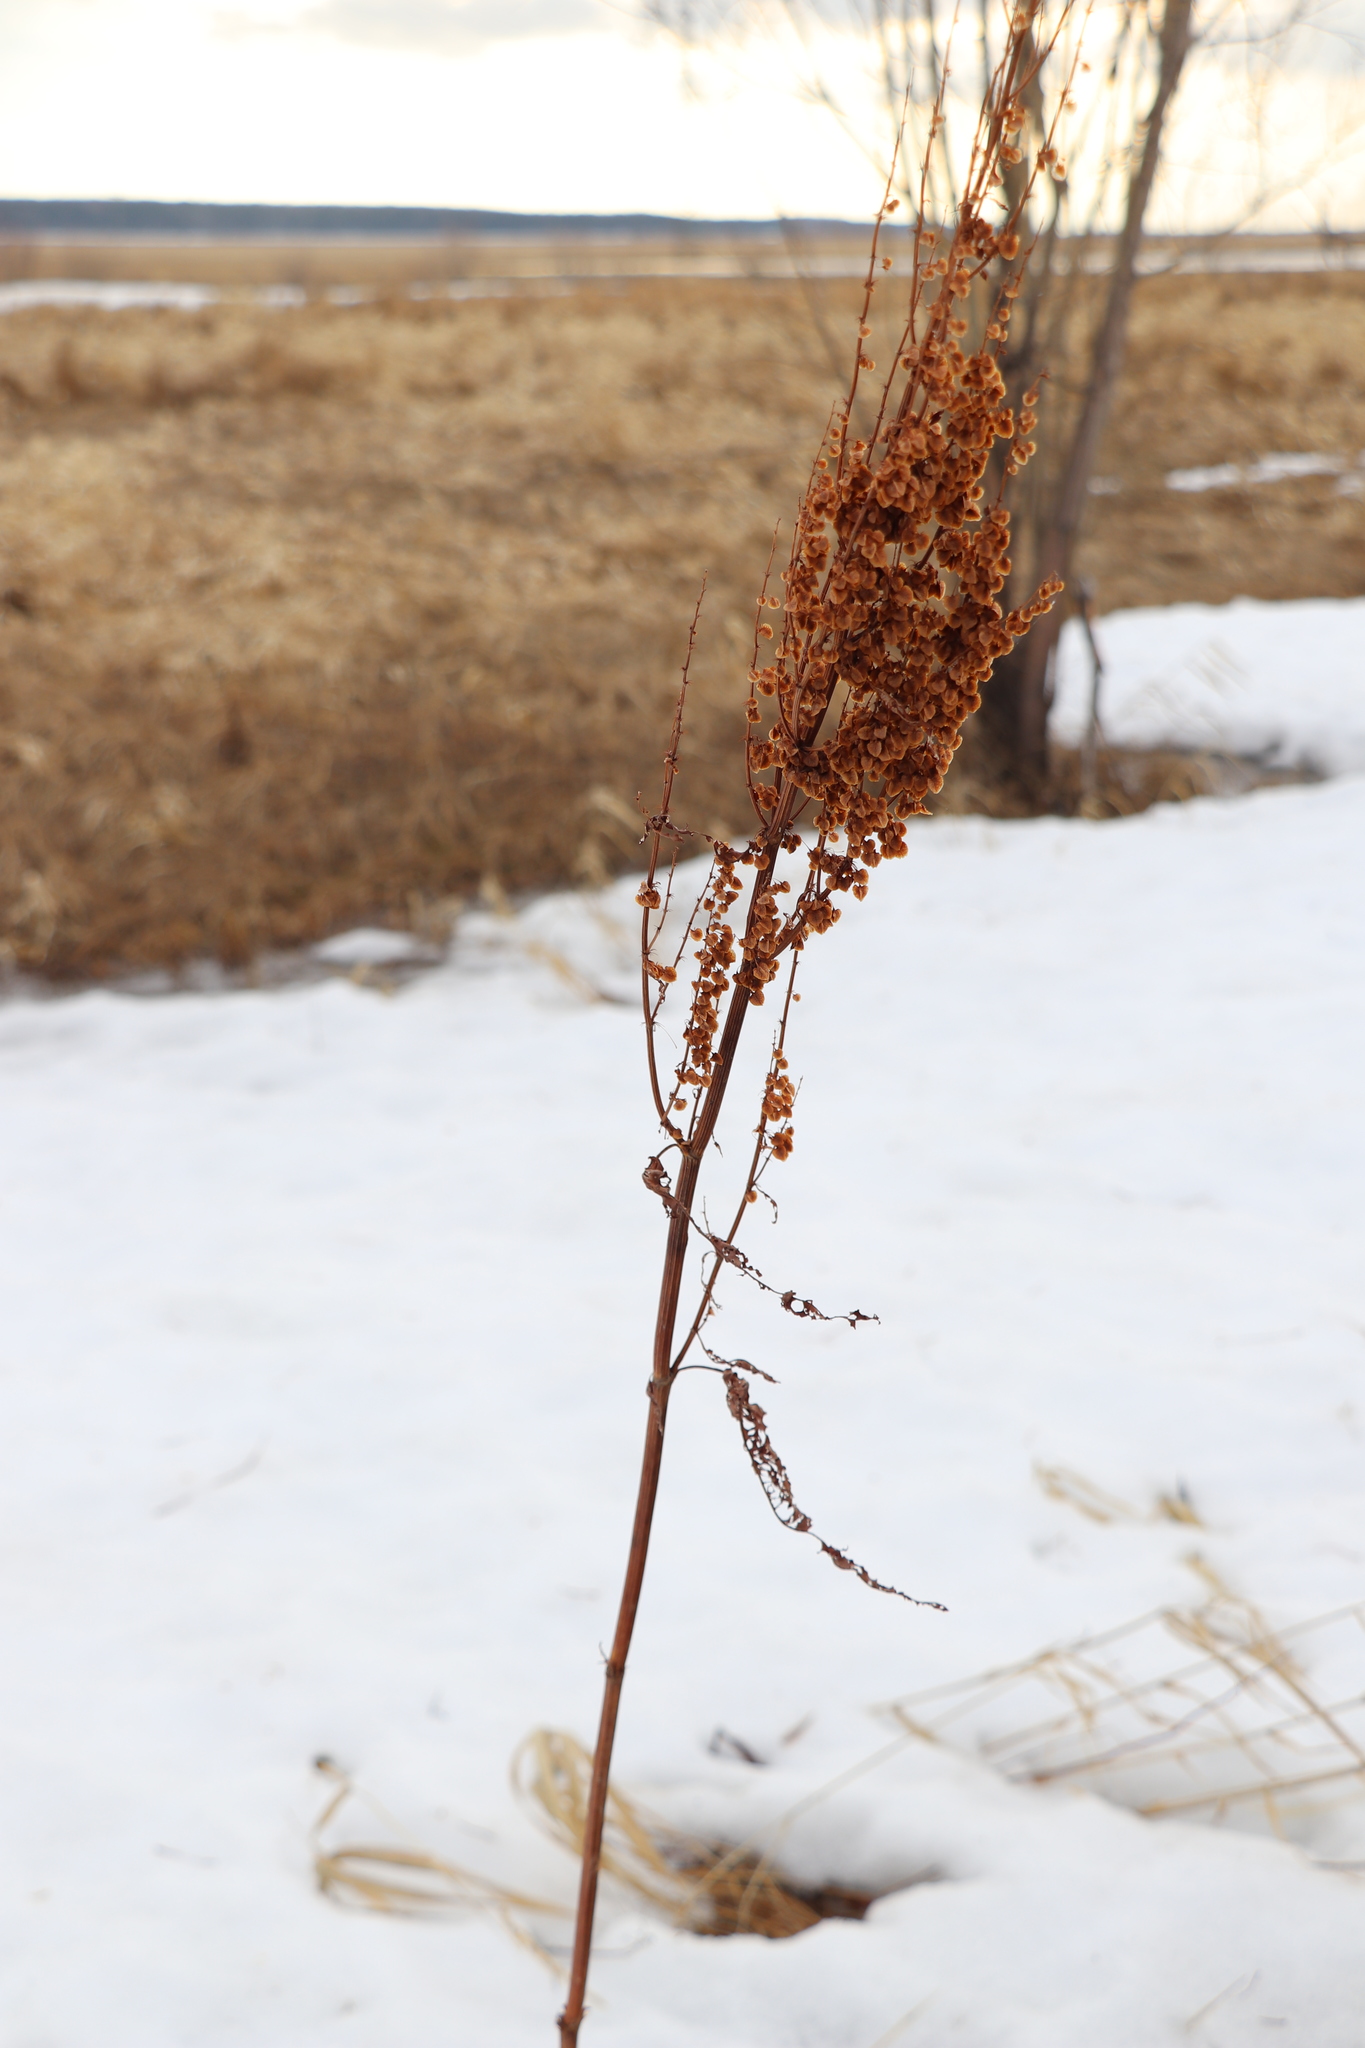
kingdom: Plantae
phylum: Tracheophyta
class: Magnoliopsida
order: Caryophyllales
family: Polygonaceae
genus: Rumex
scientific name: Rumex aquaticus
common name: Scottish dock
